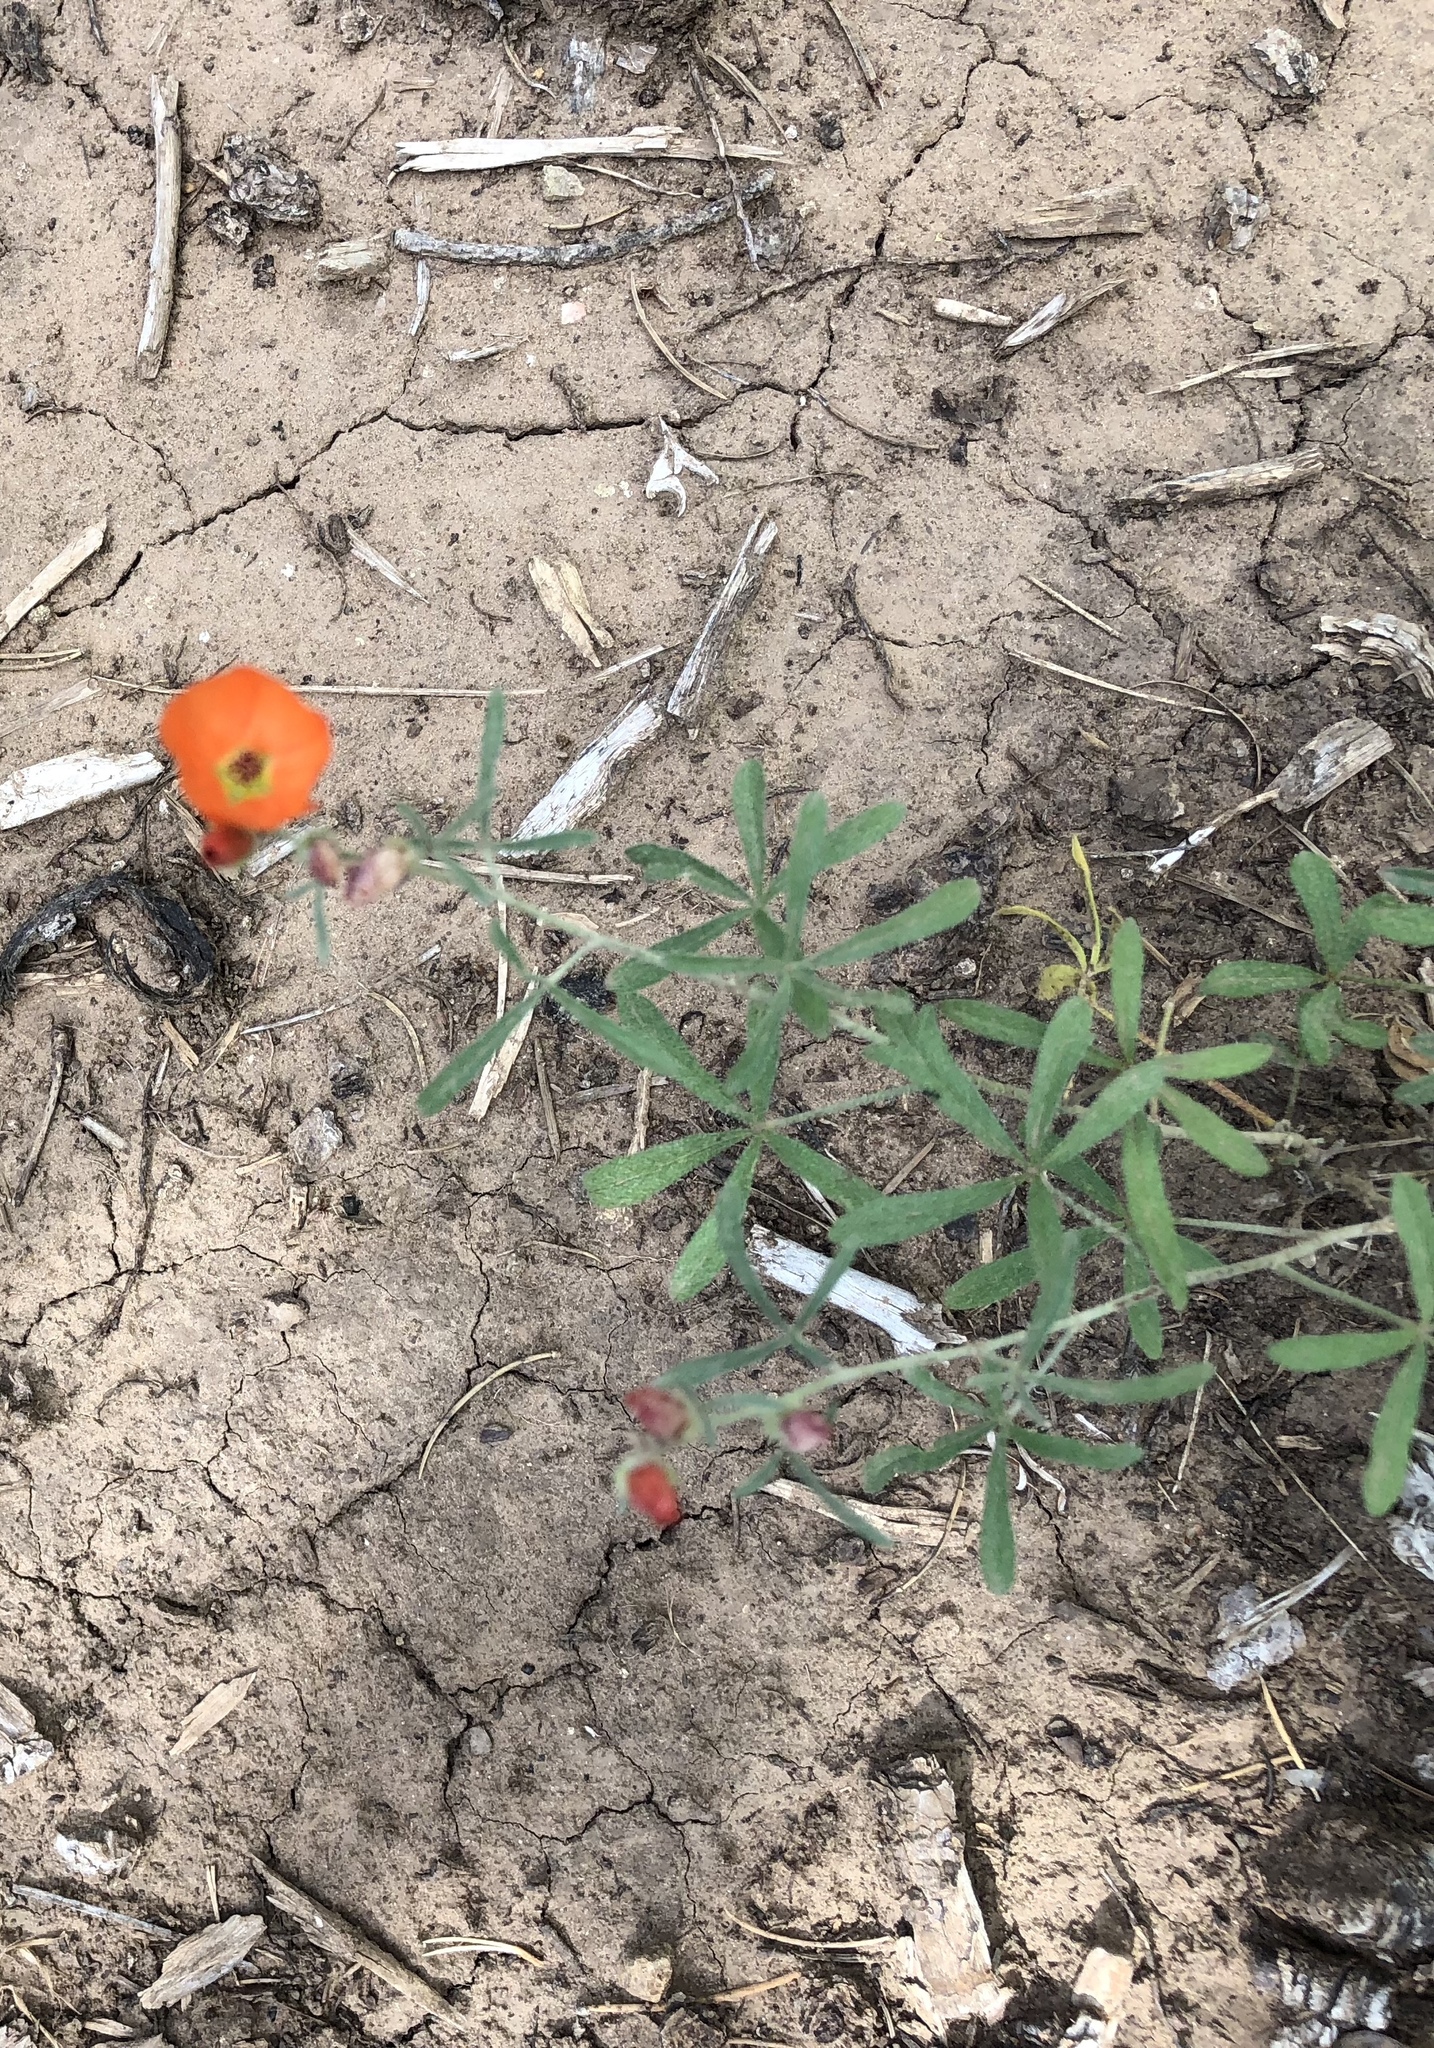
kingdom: Plantae
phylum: Tracheophyta
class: Magnoliopsida
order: Malvales
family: Malvaceae
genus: Sphaeralcea
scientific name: Sphaeralcea digitata
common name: Juniper-gobe-mallow
